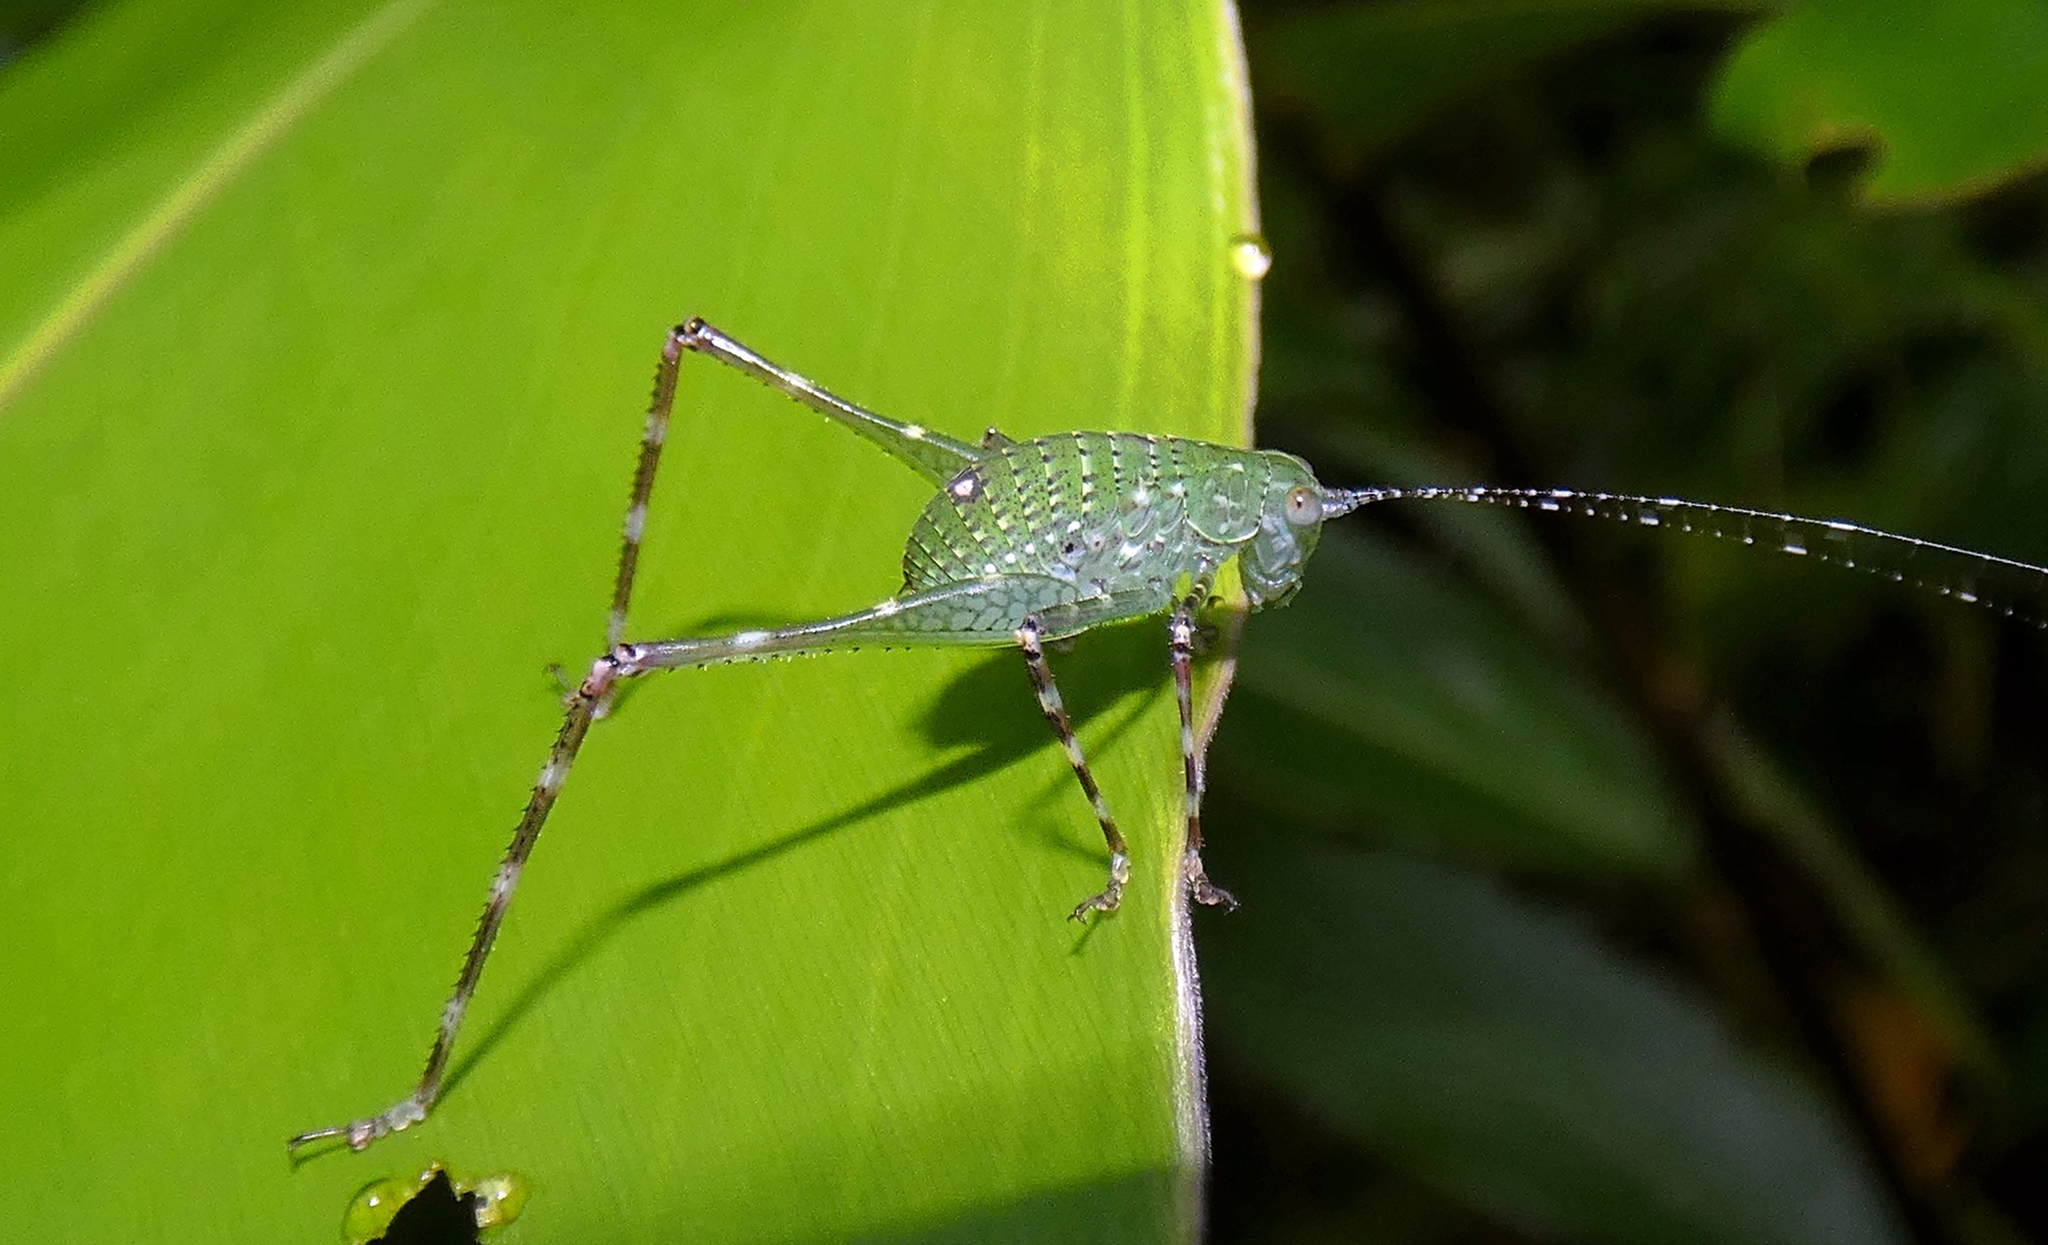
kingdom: Animalia
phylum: Arthropoda
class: Insecta
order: Orthoptera
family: Tettigoniidae
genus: Caedicia
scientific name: Caedicia webberi
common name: Webber's caedicia
